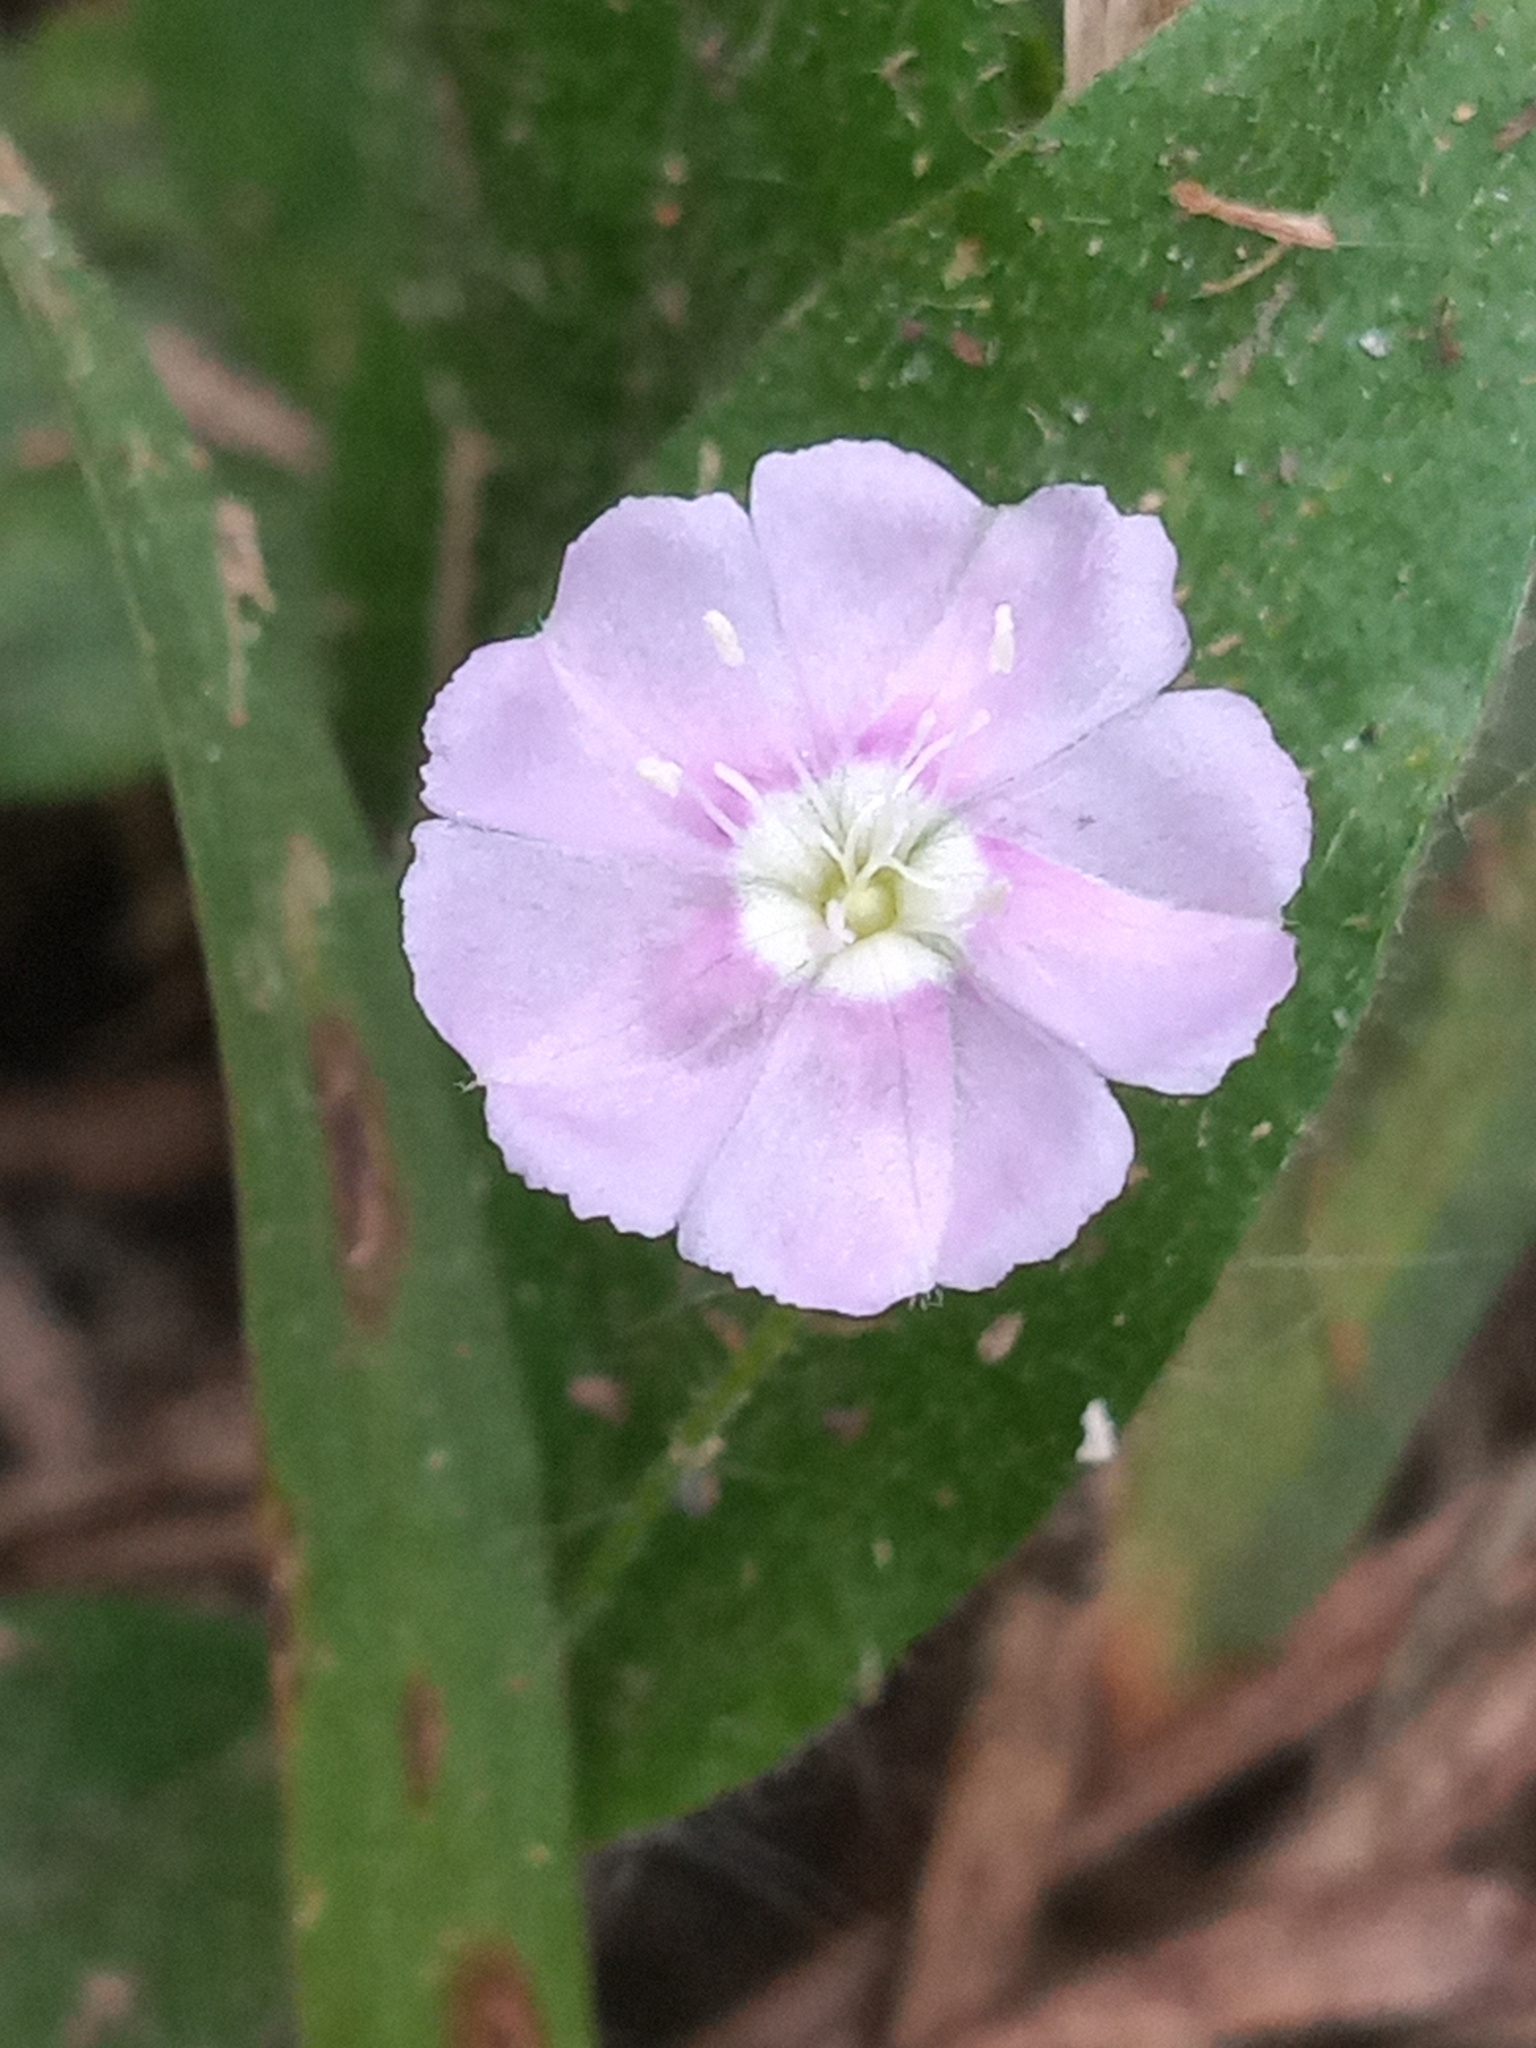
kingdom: Plantae
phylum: Tracheophyta
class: Magnoliopsida
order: Solanales
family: Convolvulaceae
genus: Evolvulus
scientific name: Evolvulus alsinoides
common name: Slender dwarf morning-glory
